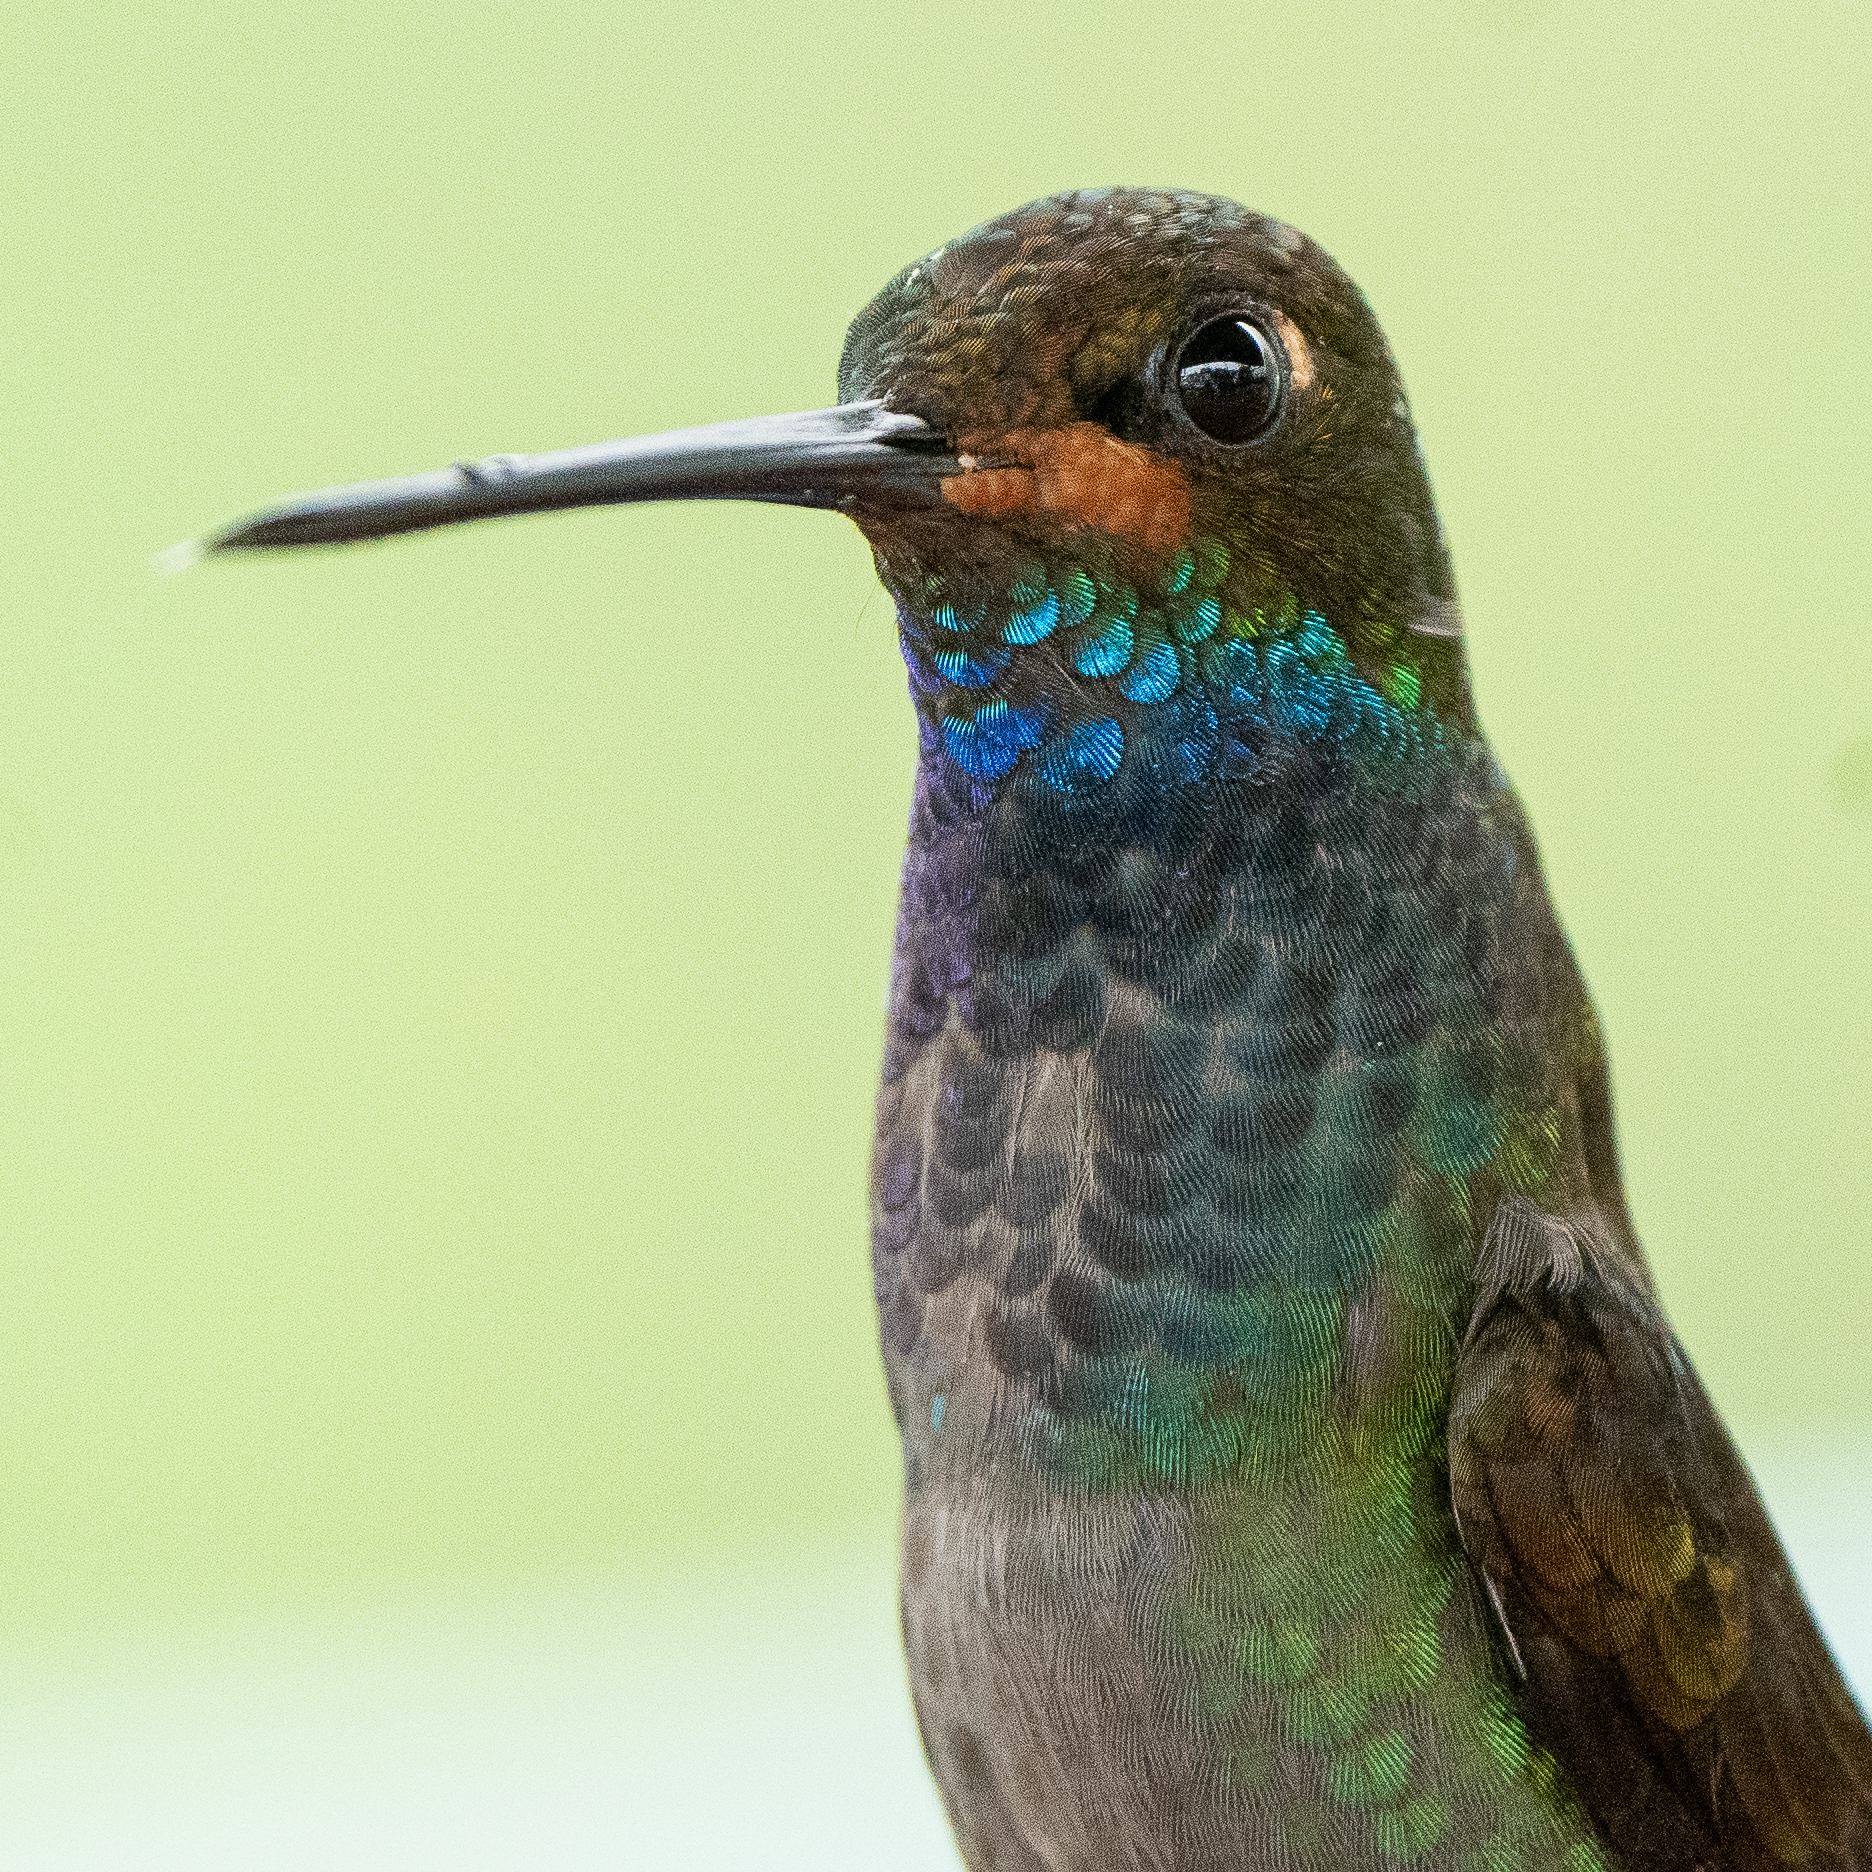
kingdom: Animalia
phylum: Chordata
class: Aves
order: Apodiformes
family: Trochilidae
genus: Urochroa
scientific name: Urochroa bougueri
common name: White-tailed hillstar
